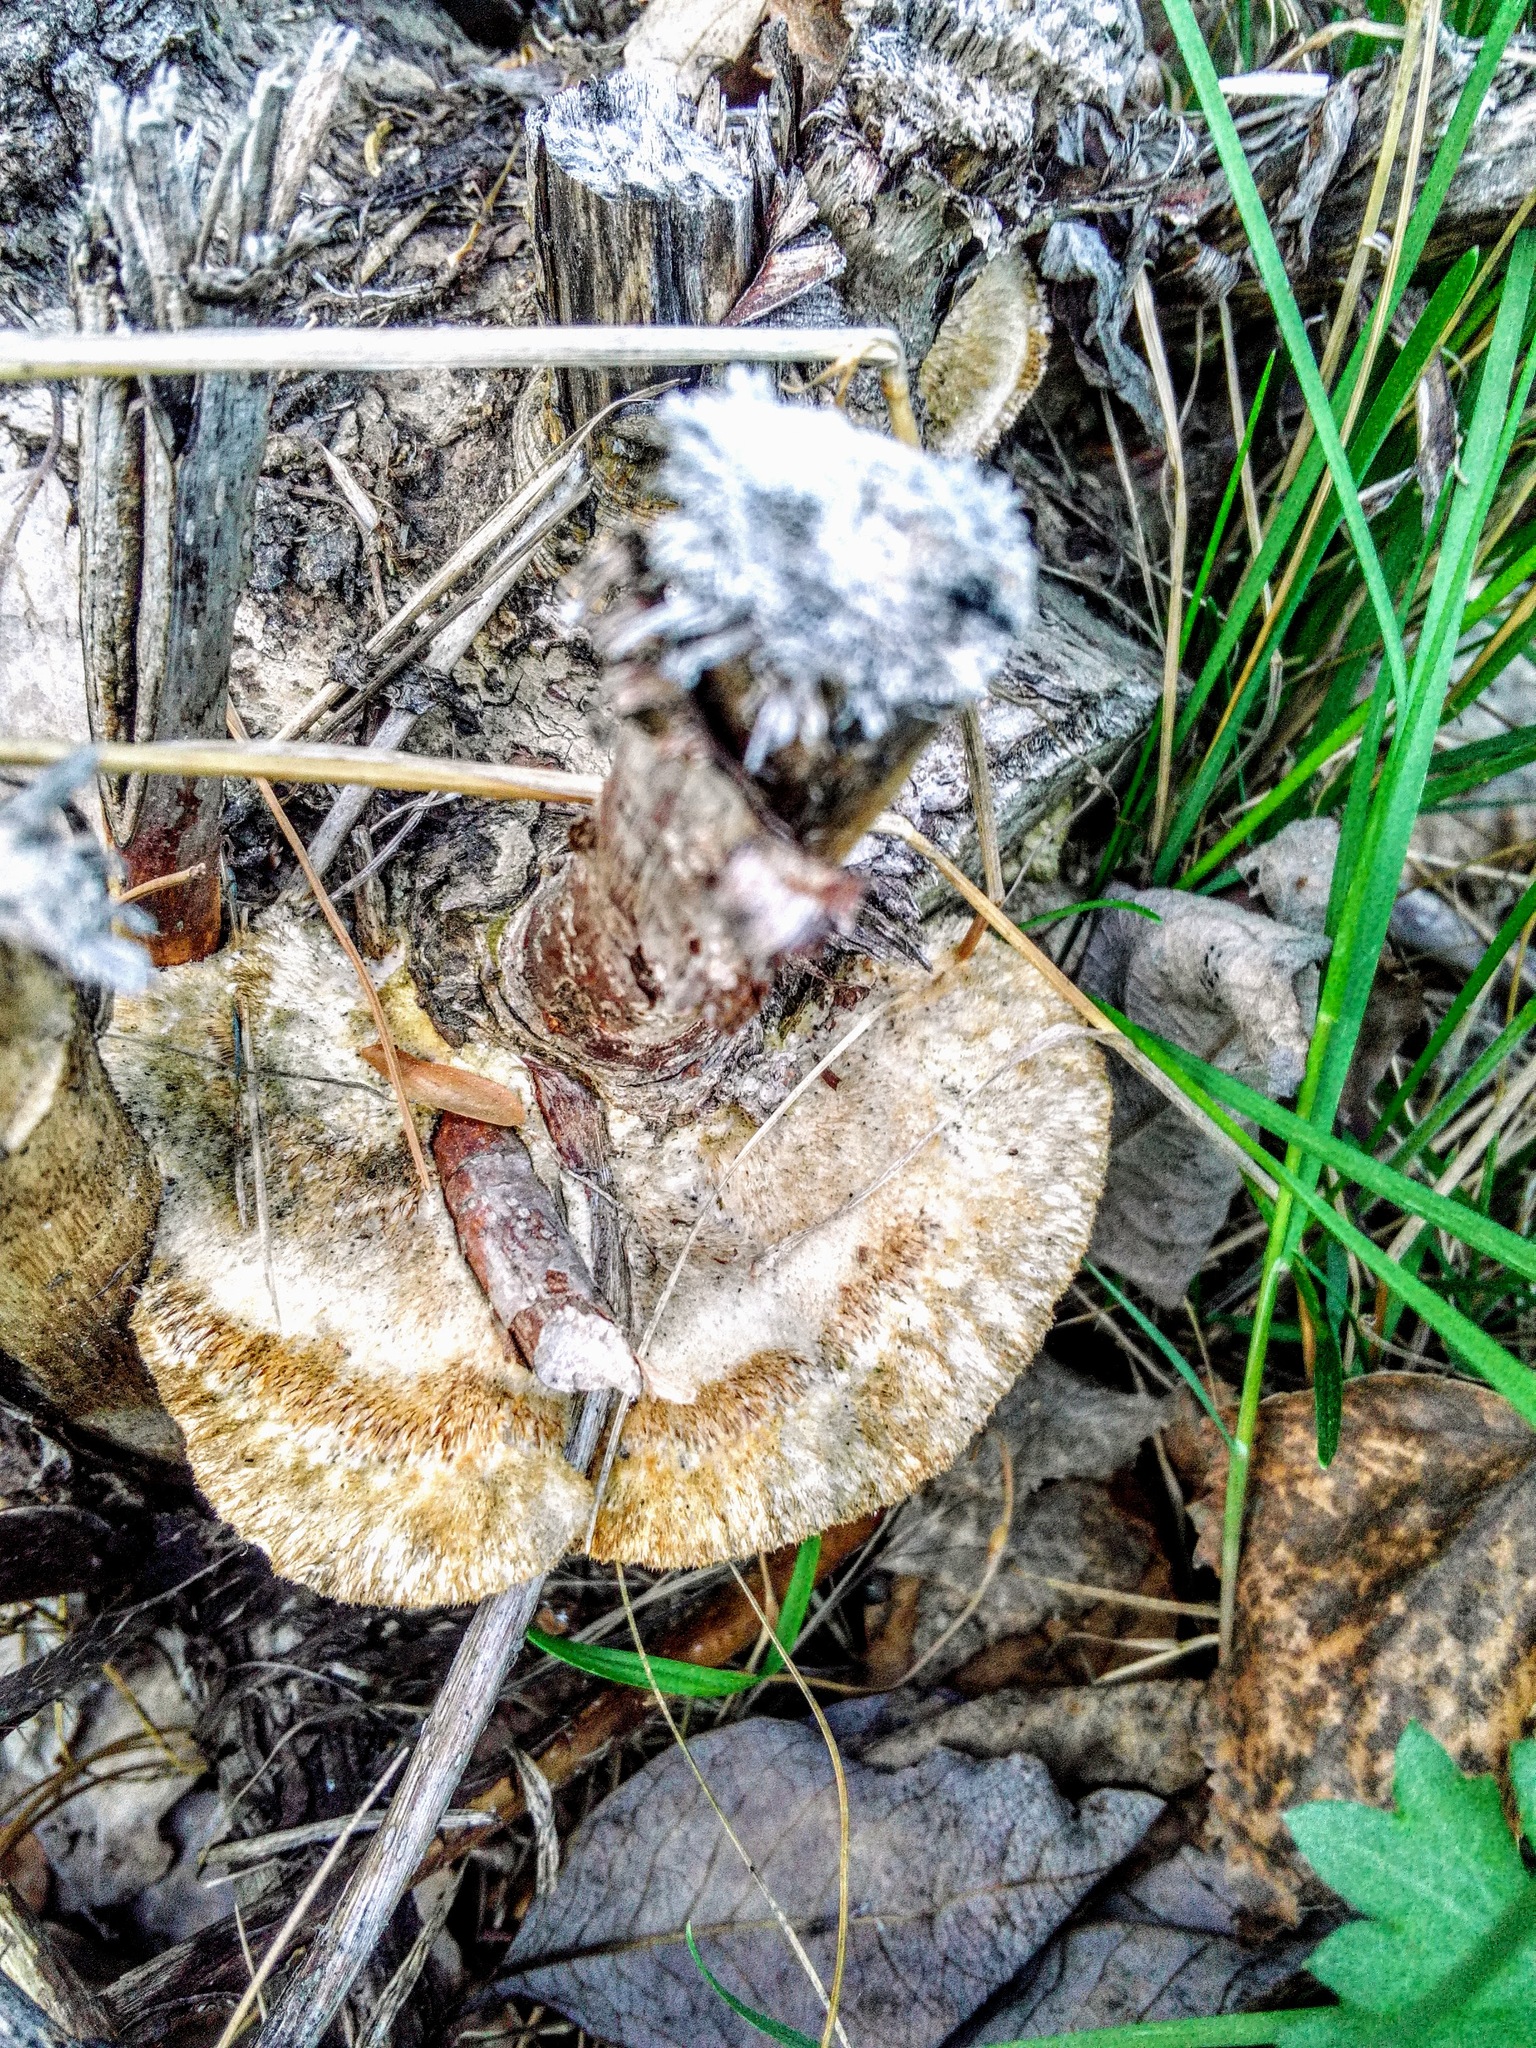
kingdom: Fungi
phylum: Basidiomycota
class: Agaricomycetes
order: Polyporales
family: Polyporaceae
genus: Trametes
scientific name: Trametes trogii
